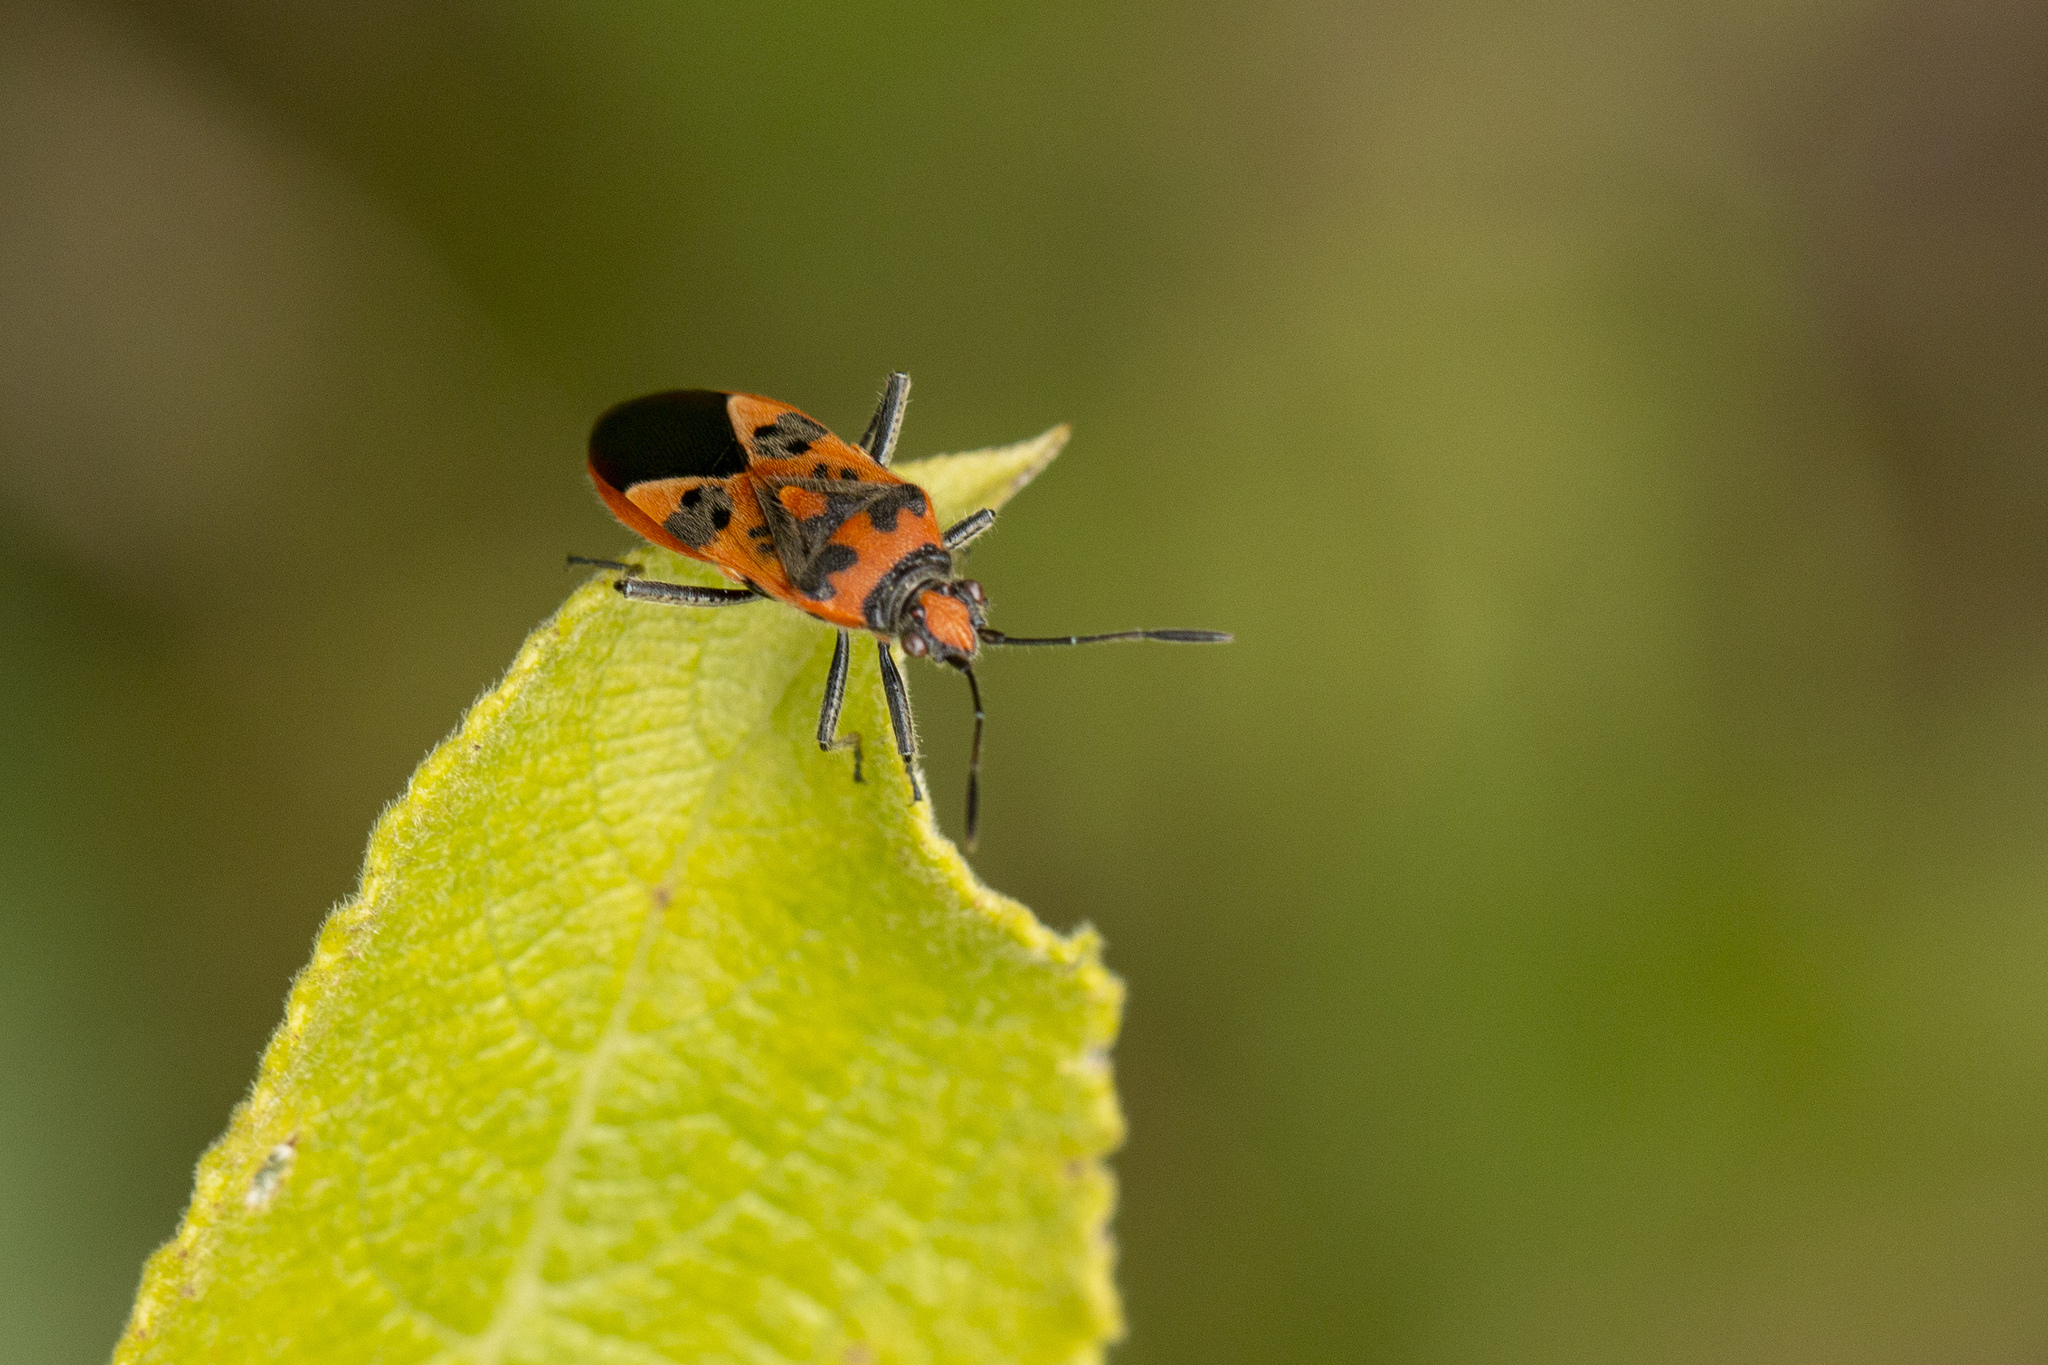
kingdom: Animalia
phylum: Arthropoda
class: Insecta
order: Hemiptera
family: Rhopalidae
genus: Corizus
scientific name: Corizus hyoscyami
